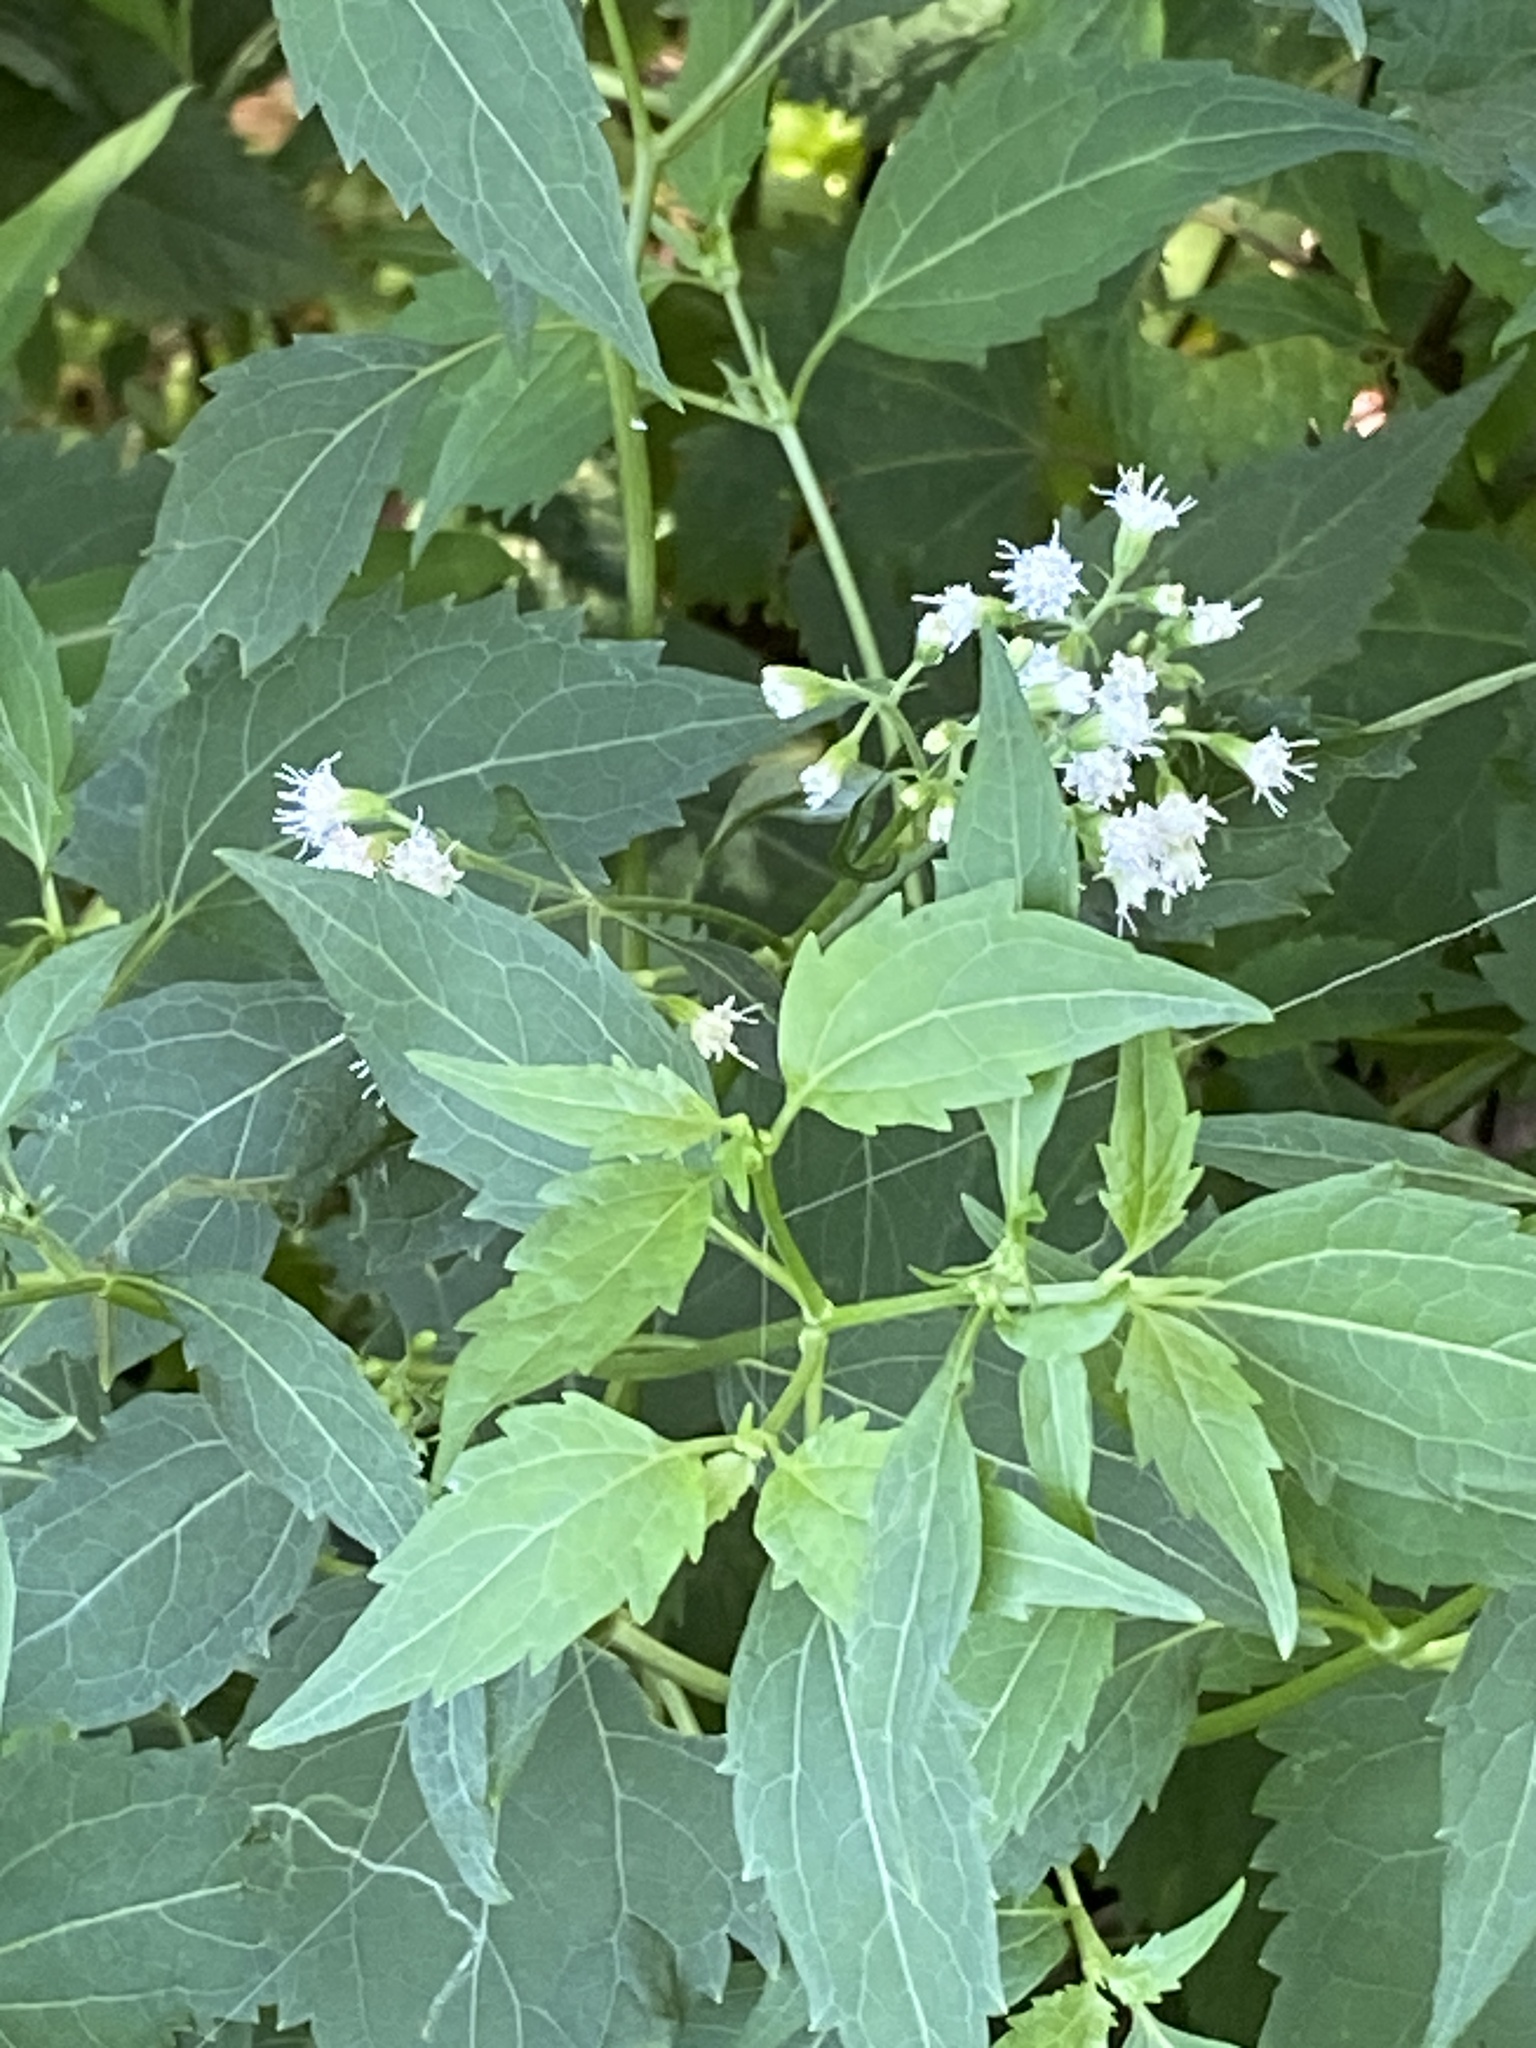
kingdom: Plantae
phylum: Tracheophyta
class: Magnoliopsida
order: Asterales
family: Asteraceae
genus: Ageratina
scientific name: Ageratina altissima
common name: White snakeroot
